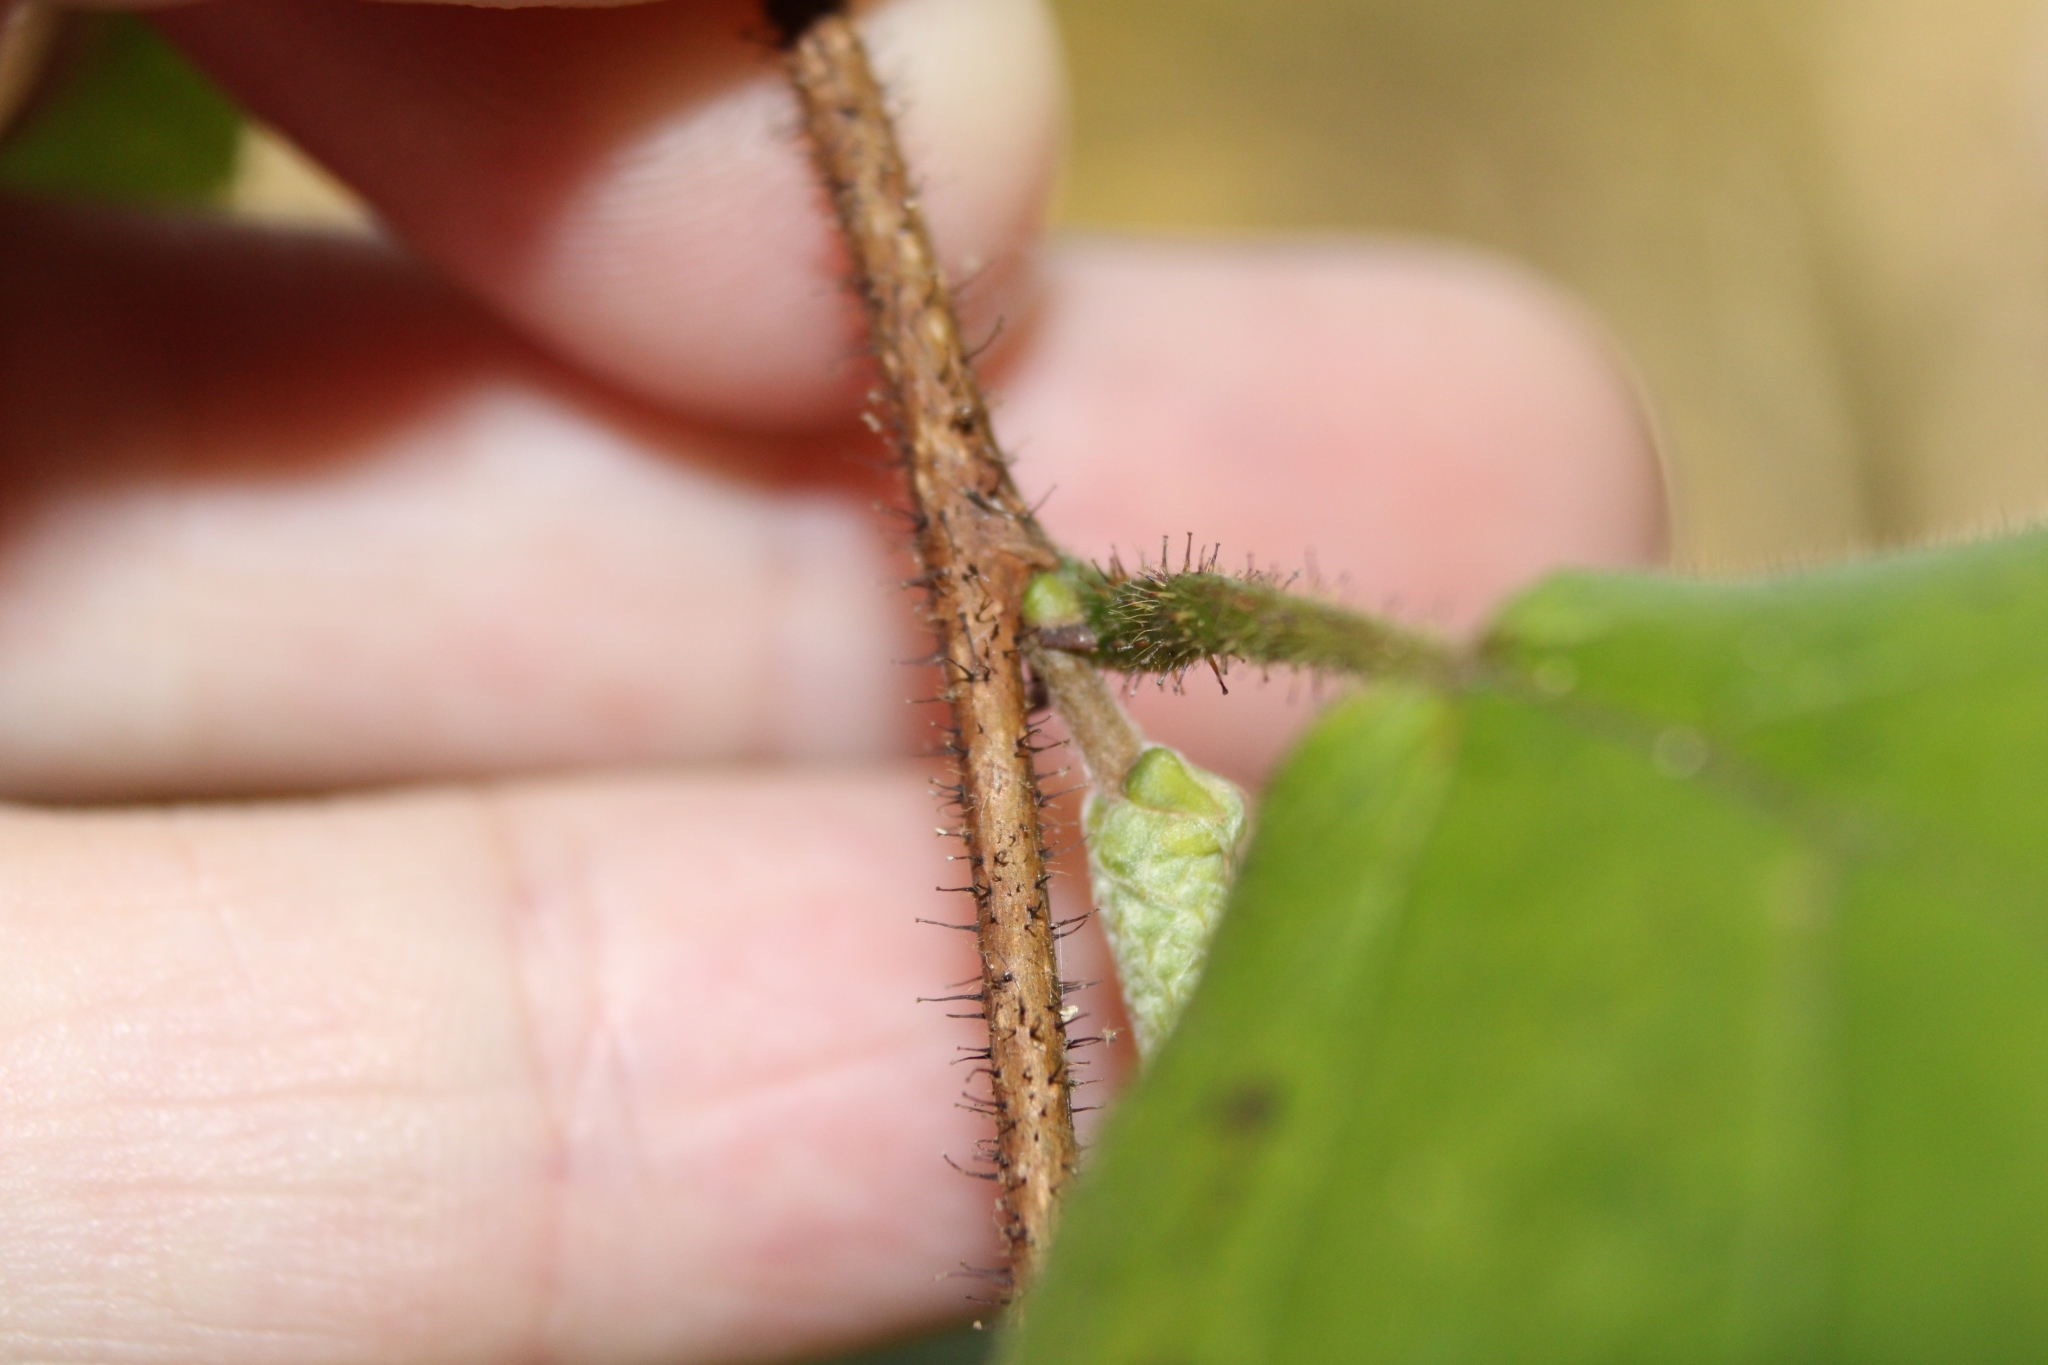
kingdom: Plantae
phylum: Tracheophyta
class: Magnoliopsida
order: Fagales
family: Betulaceae
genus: Corylus
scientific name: Corylus americana
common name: American hazel
